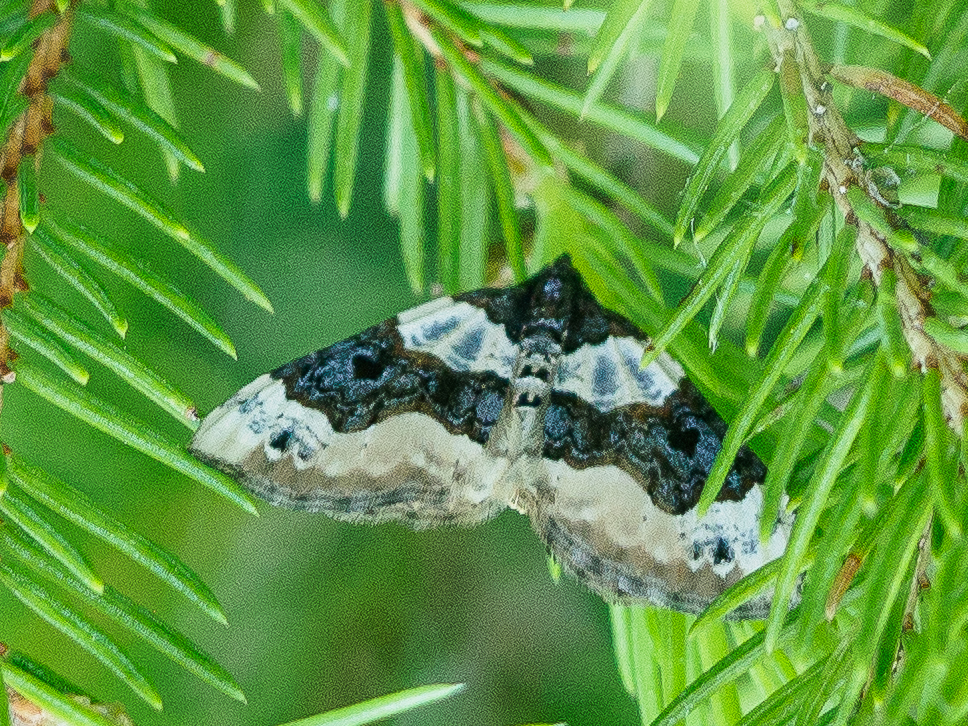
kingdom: Animalia
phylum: Arthropoda
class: Insecta
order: Lepidoptera
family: Geometridae
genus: Cosmorhoe
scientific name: Cosmorhoe ocellata
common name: Purple bar
